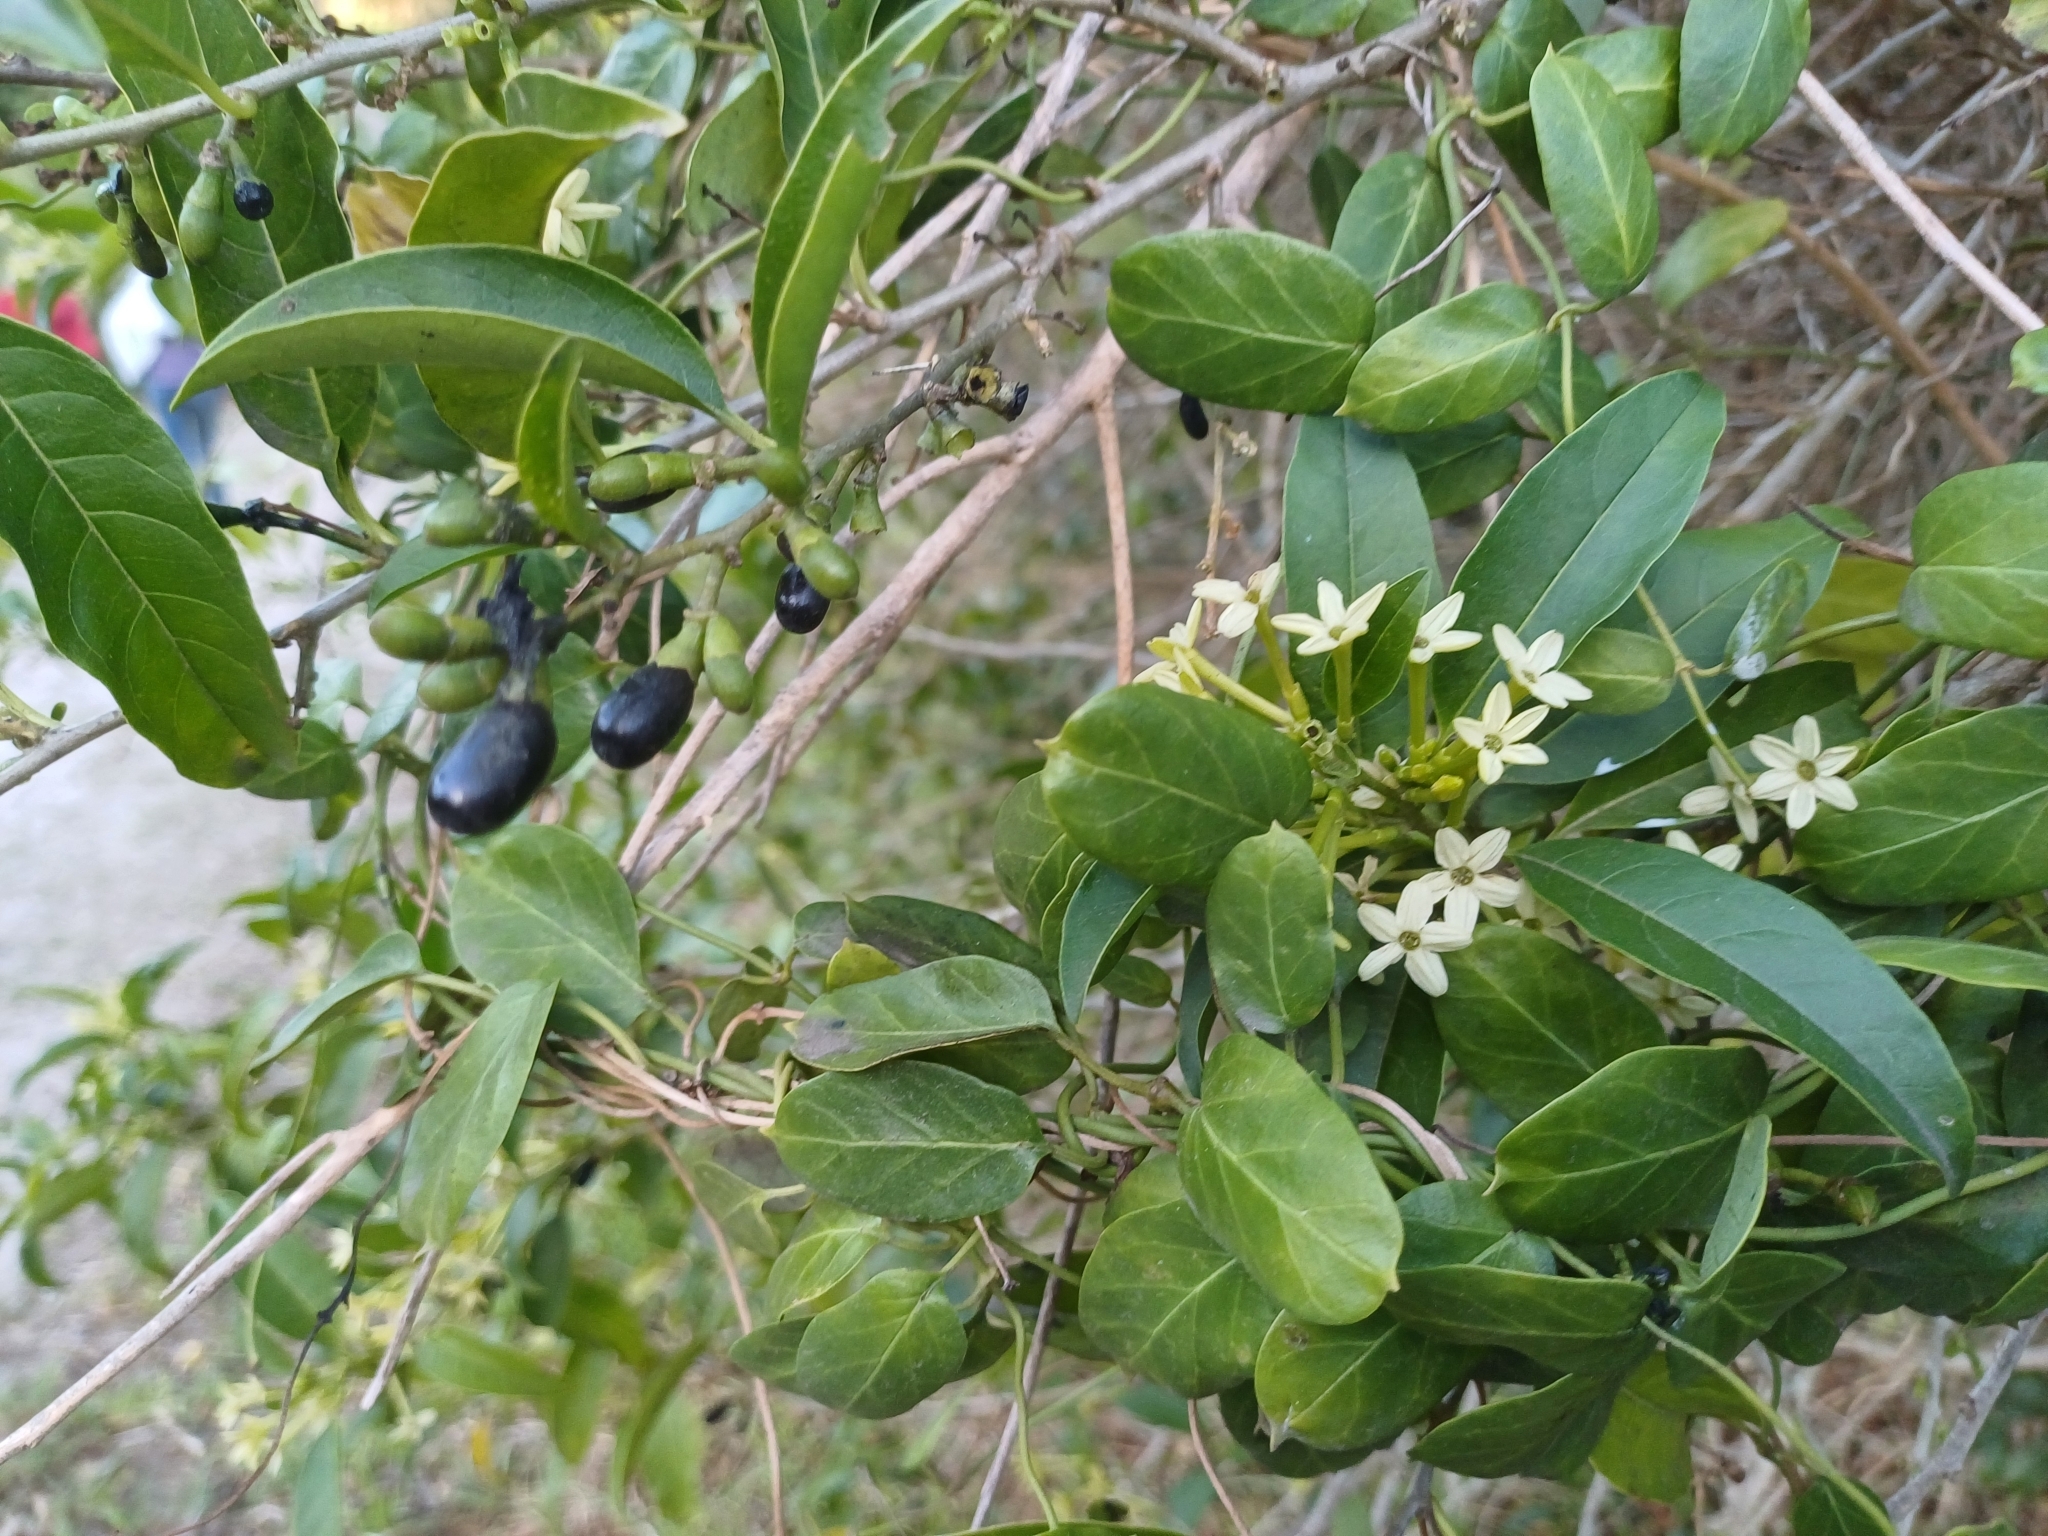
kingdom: Plantae
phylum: Tracheophyta
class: Magnoliopsida
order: Solanales
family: Solanaceae
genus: Cestrum
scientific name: Cestrum laevigatum
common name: Inkberry
